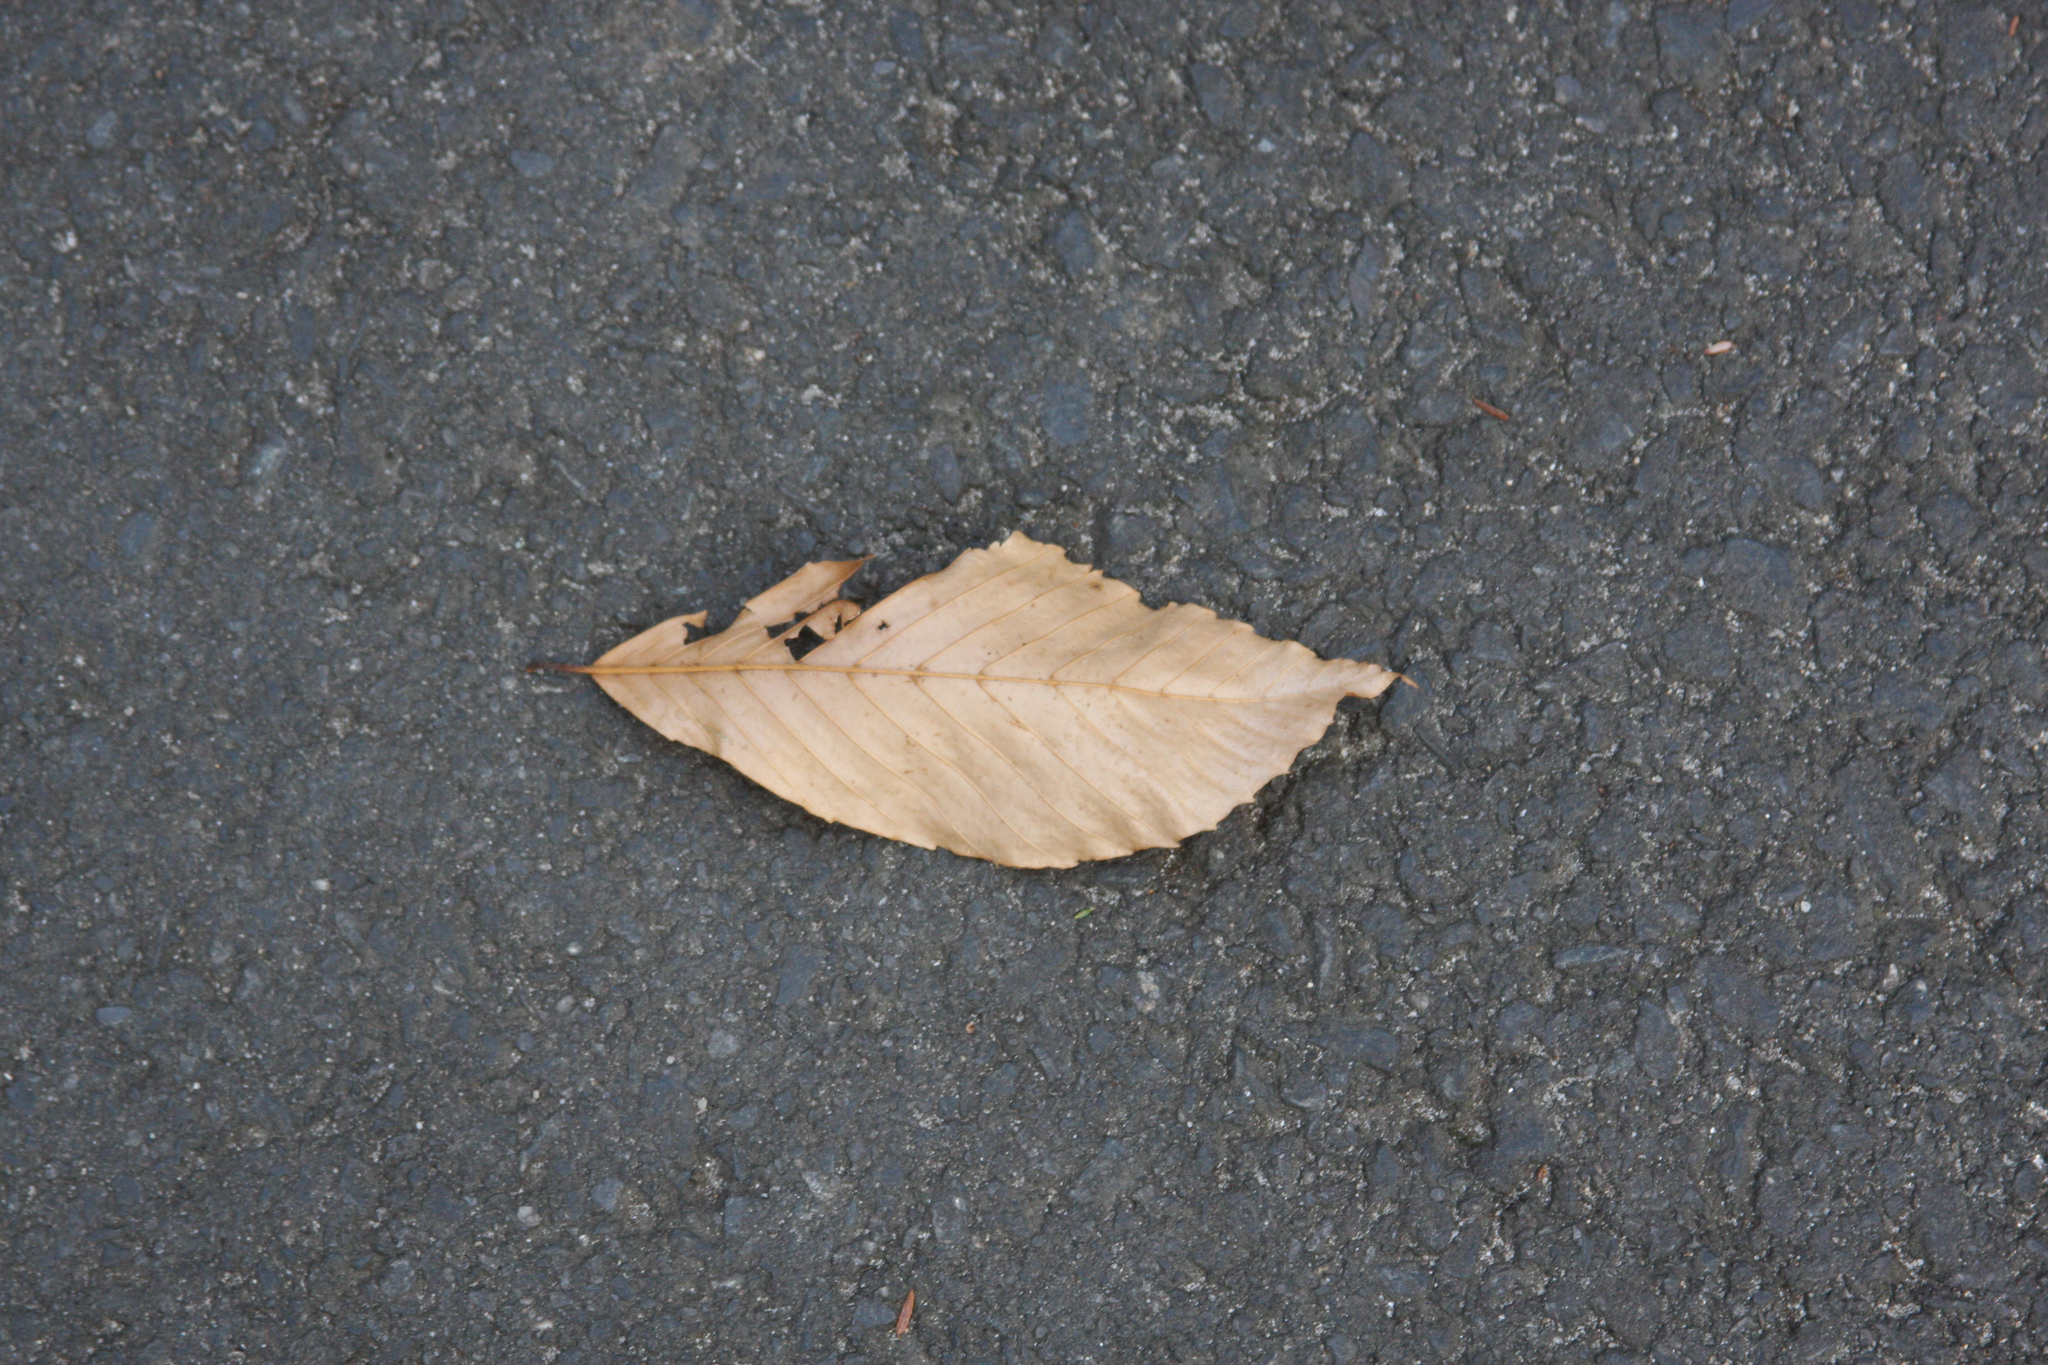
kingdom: Plantae
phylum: Tracheophyta
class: Magnoliopsida
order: Fagales
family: Fagaceae
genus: Fagus
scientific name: Fagus grandifolia
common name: American beech
